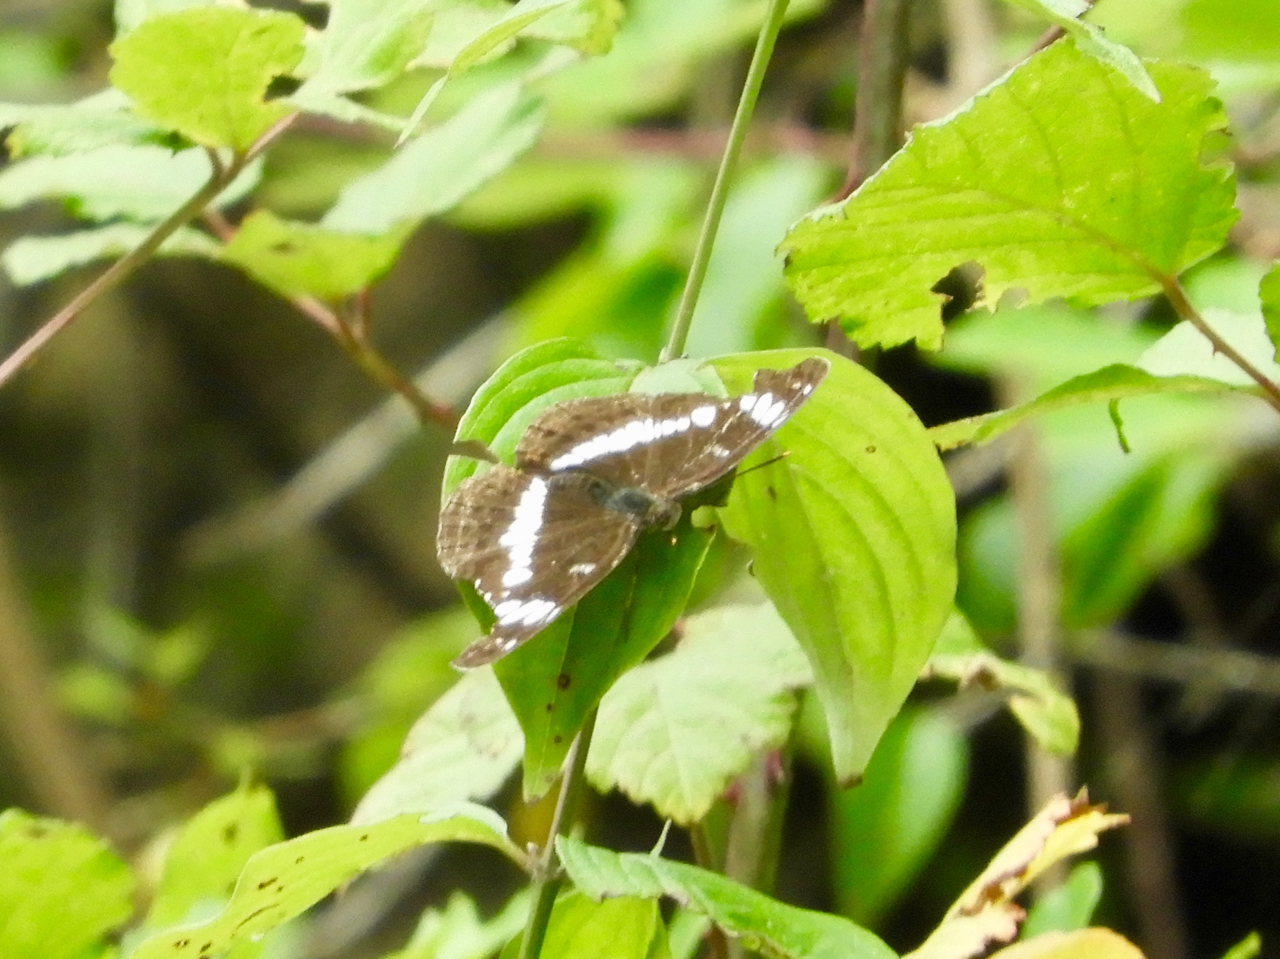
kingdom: Animalia
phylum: Arthropoda
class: Insecta
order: Lepidoptera
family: Nymphalidae
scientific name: Nymphalidae
